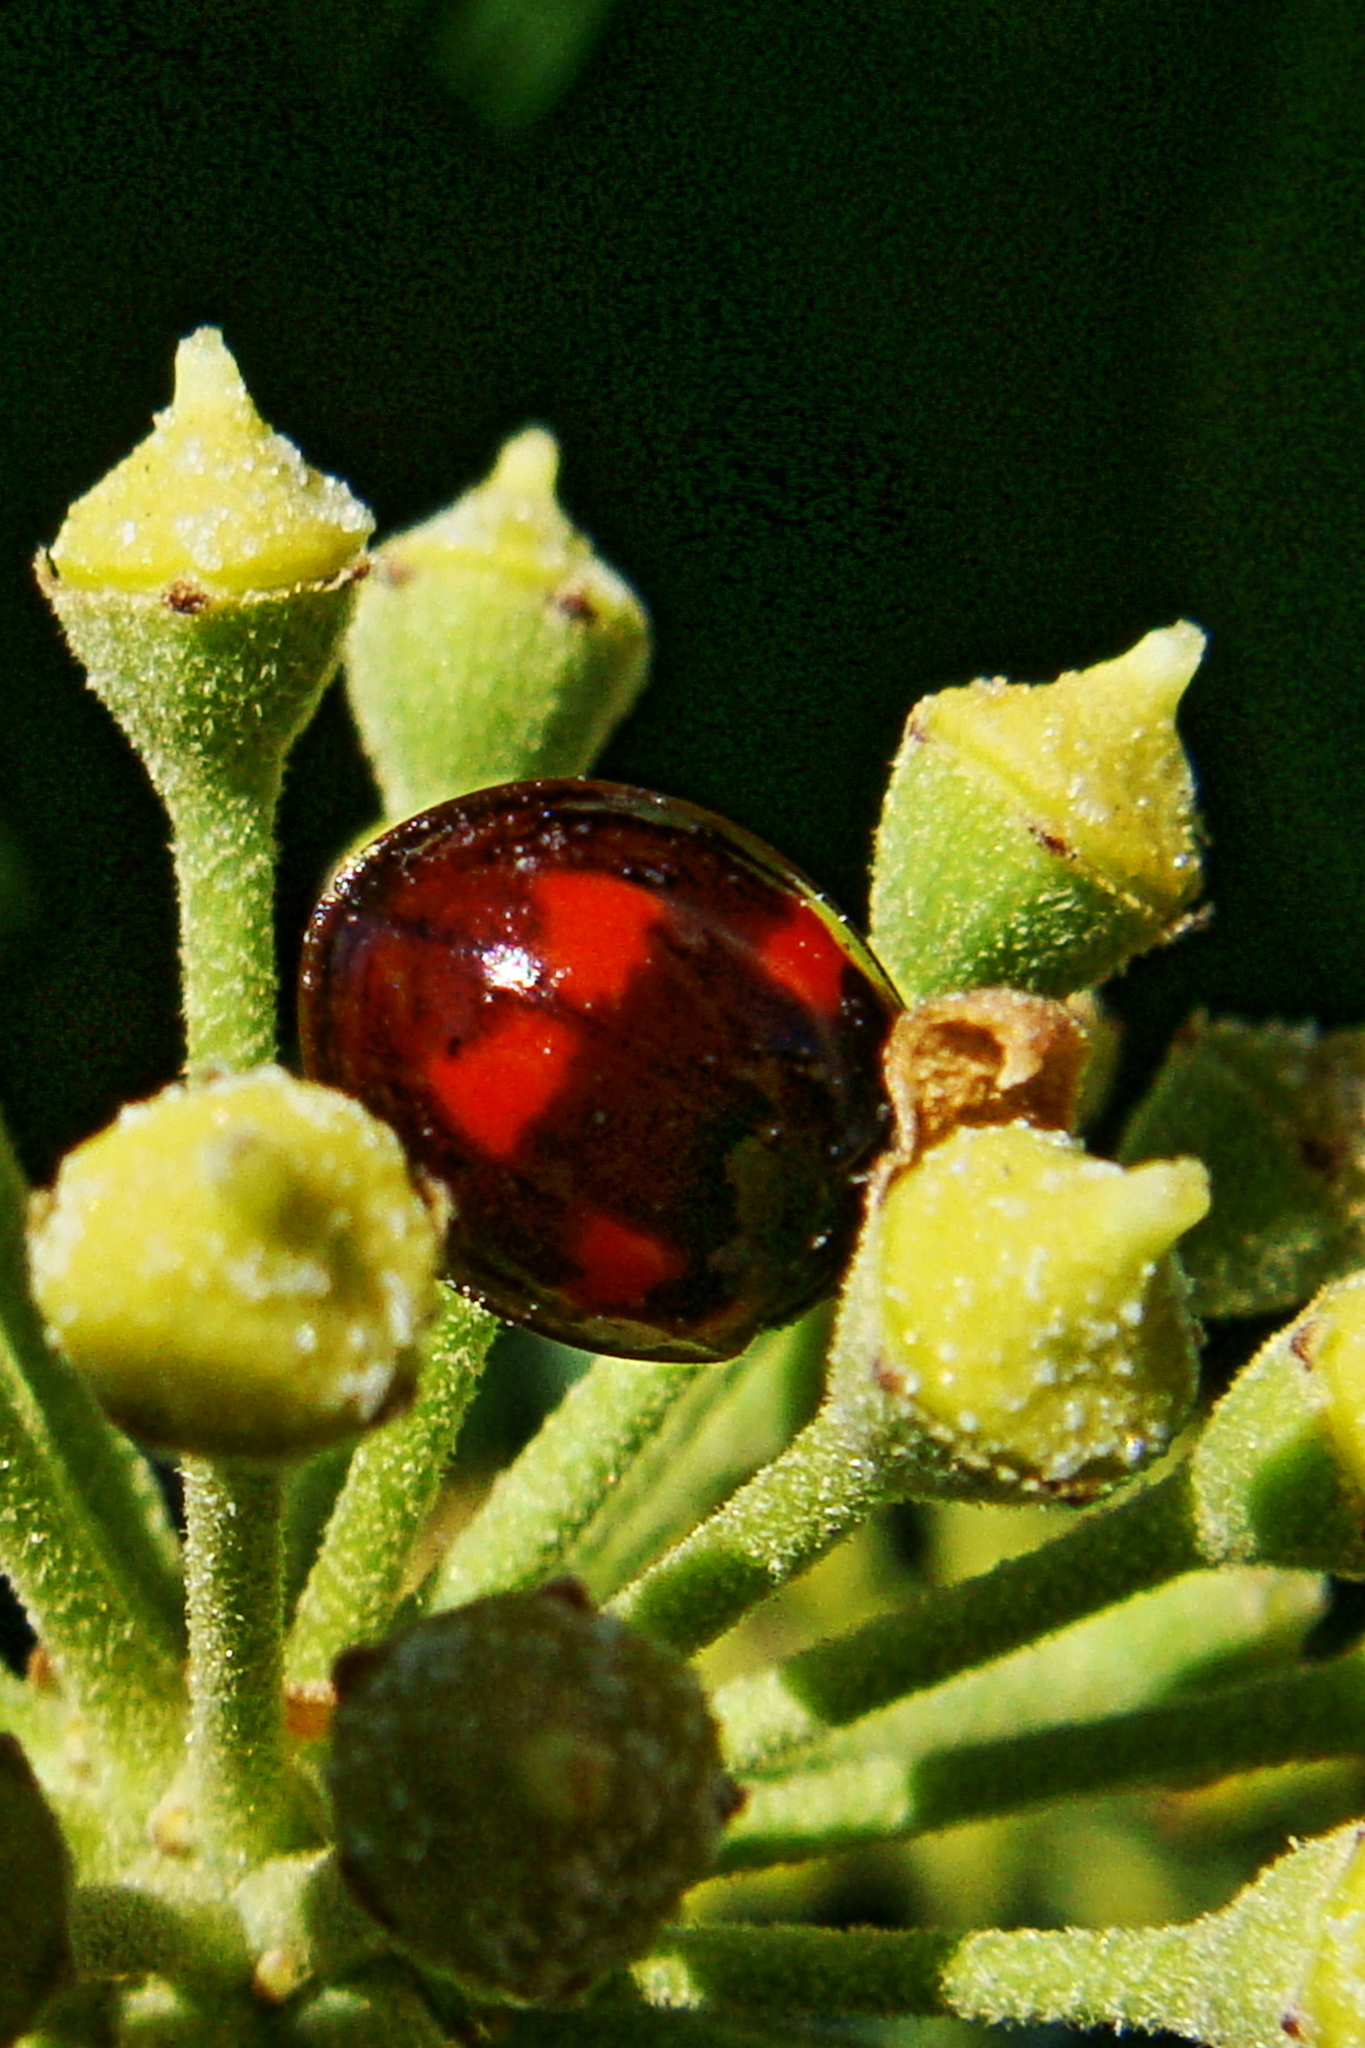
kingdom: Animalia
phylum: Arthropoda
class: Insecta
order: Coleoptera
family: Coccinellidae
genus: Brumus
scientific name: Brumus quadripustulatus
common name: Ladybird beetle
